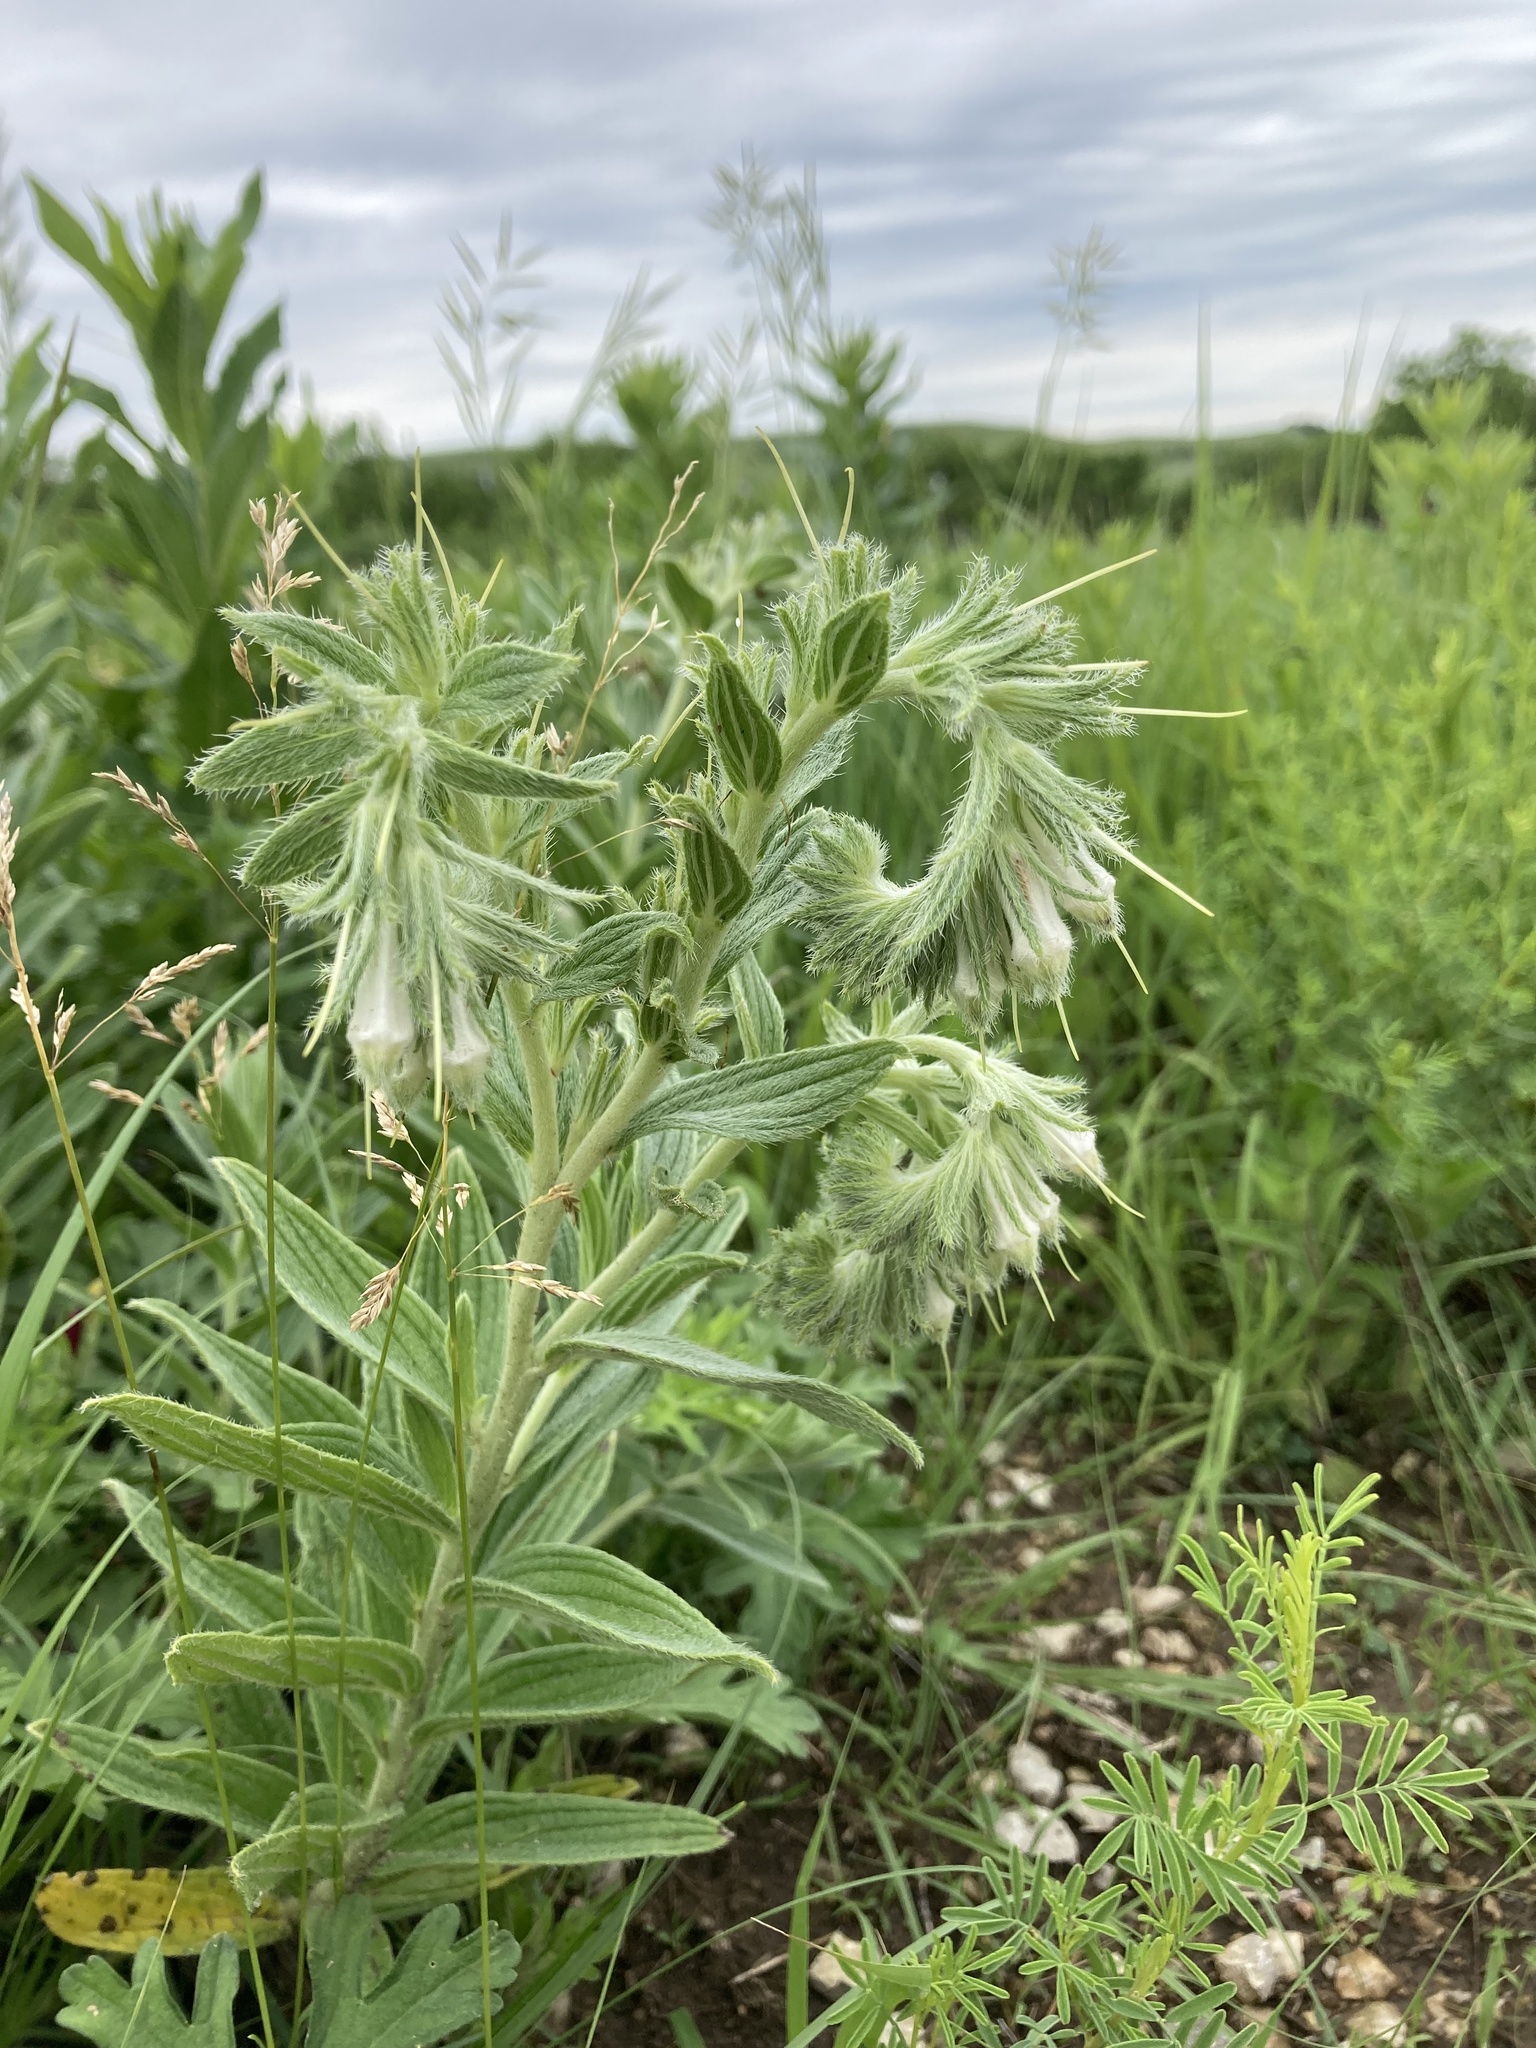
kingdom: Plantae
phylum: Tracheophyta
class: Magnoliopsida
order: Boraginales
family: Boraginaceae
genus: Lithospermum
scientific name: Lithospermum occidentale
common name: Western false gromwell
